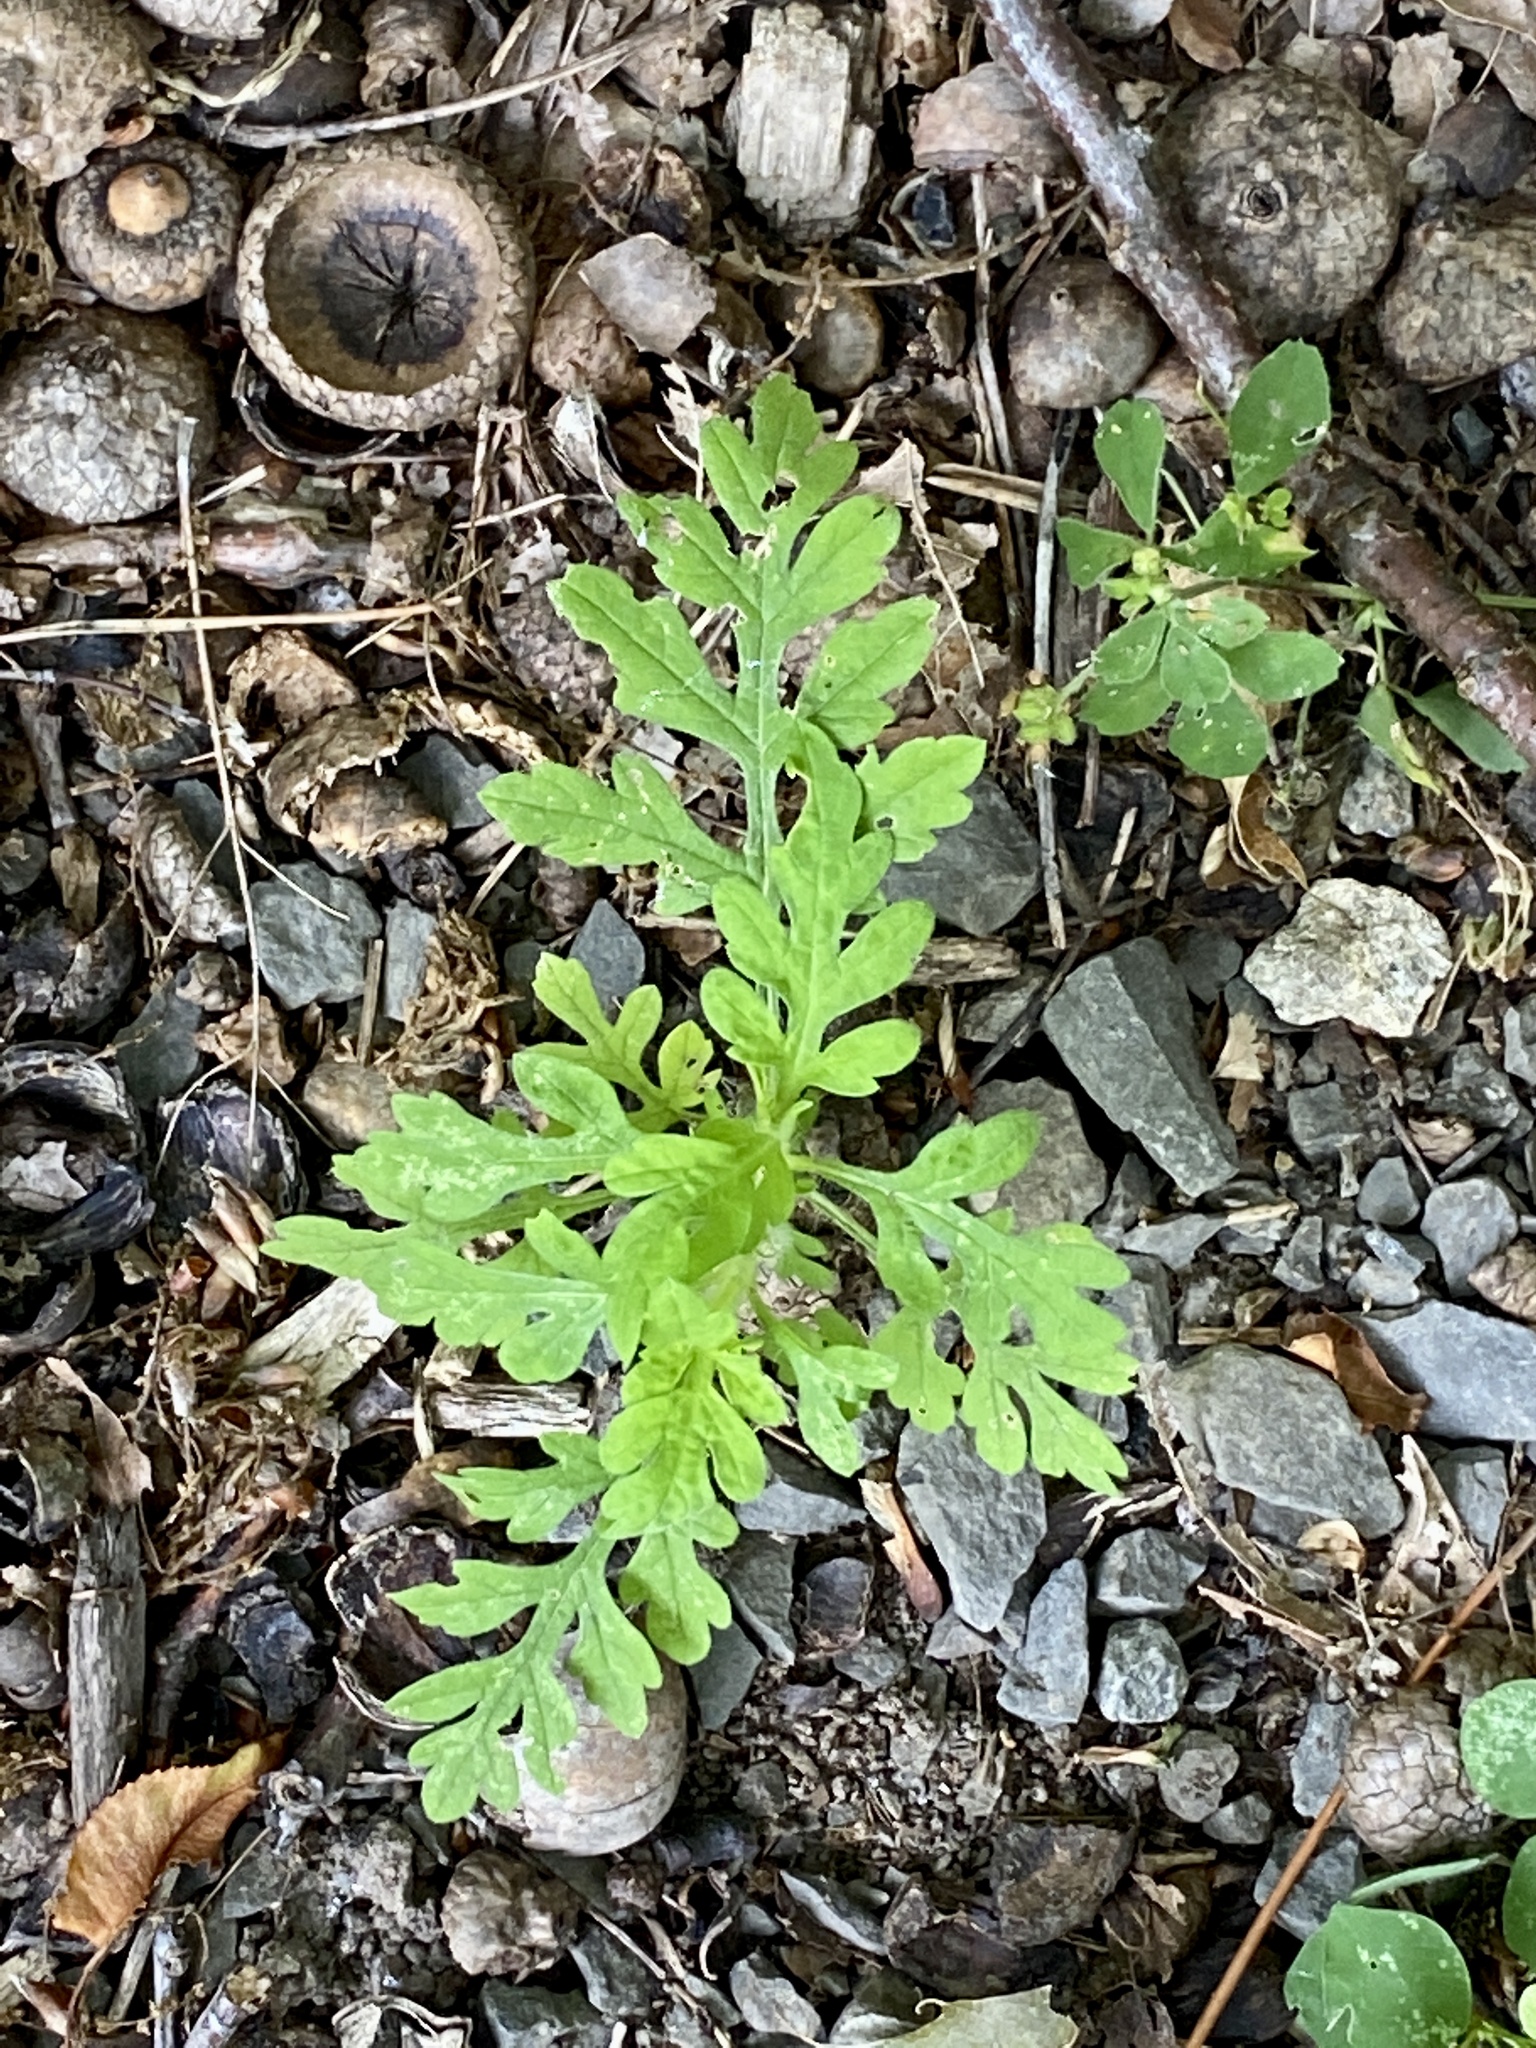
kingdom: Plantae
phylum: Tracheophyta
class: Magnoliopsida
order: Asterales
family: Asteraceae
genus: Ambrosia
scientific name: Ambrosia artemisiifolia
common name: Annual ragweed
